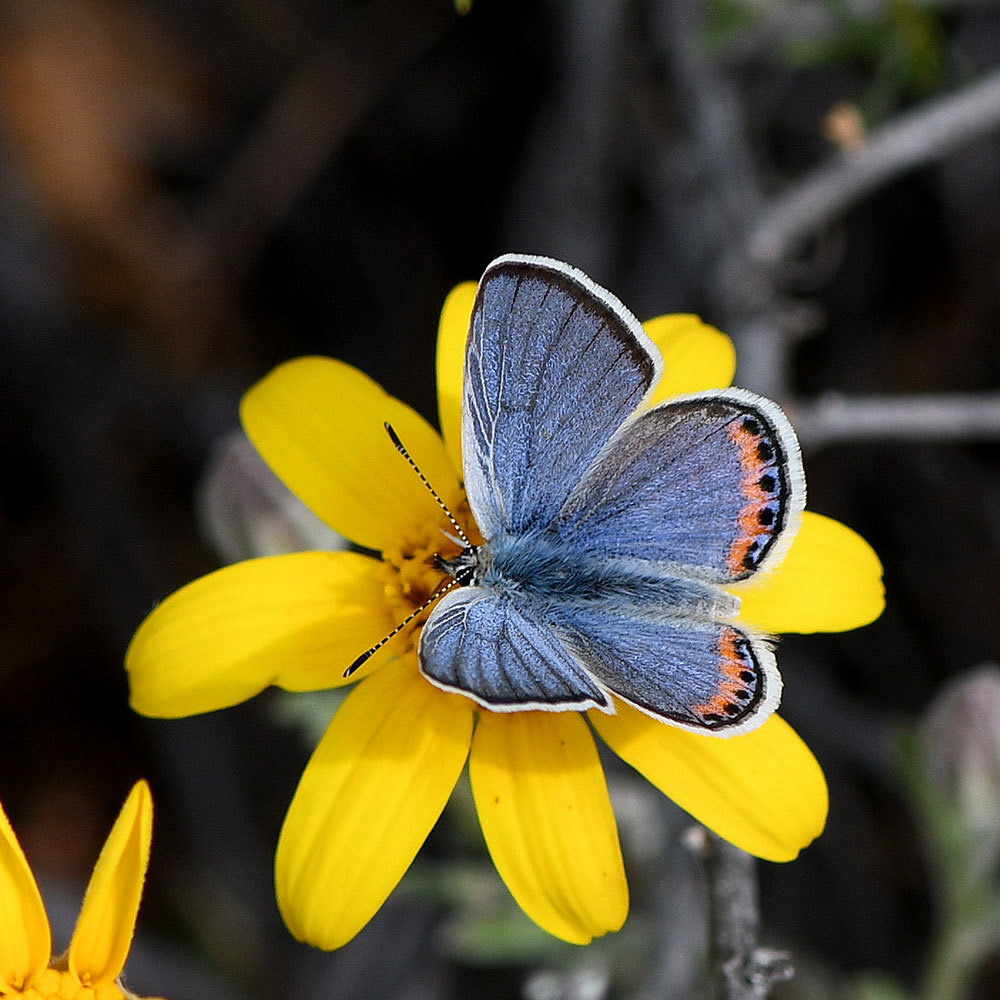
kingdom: Animalia
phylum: Arthropoda
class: Insecta
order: Lepidoptera
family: Lycaenidae
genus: Icaricia
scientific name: Icaricia acmon
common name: Acmon blue
